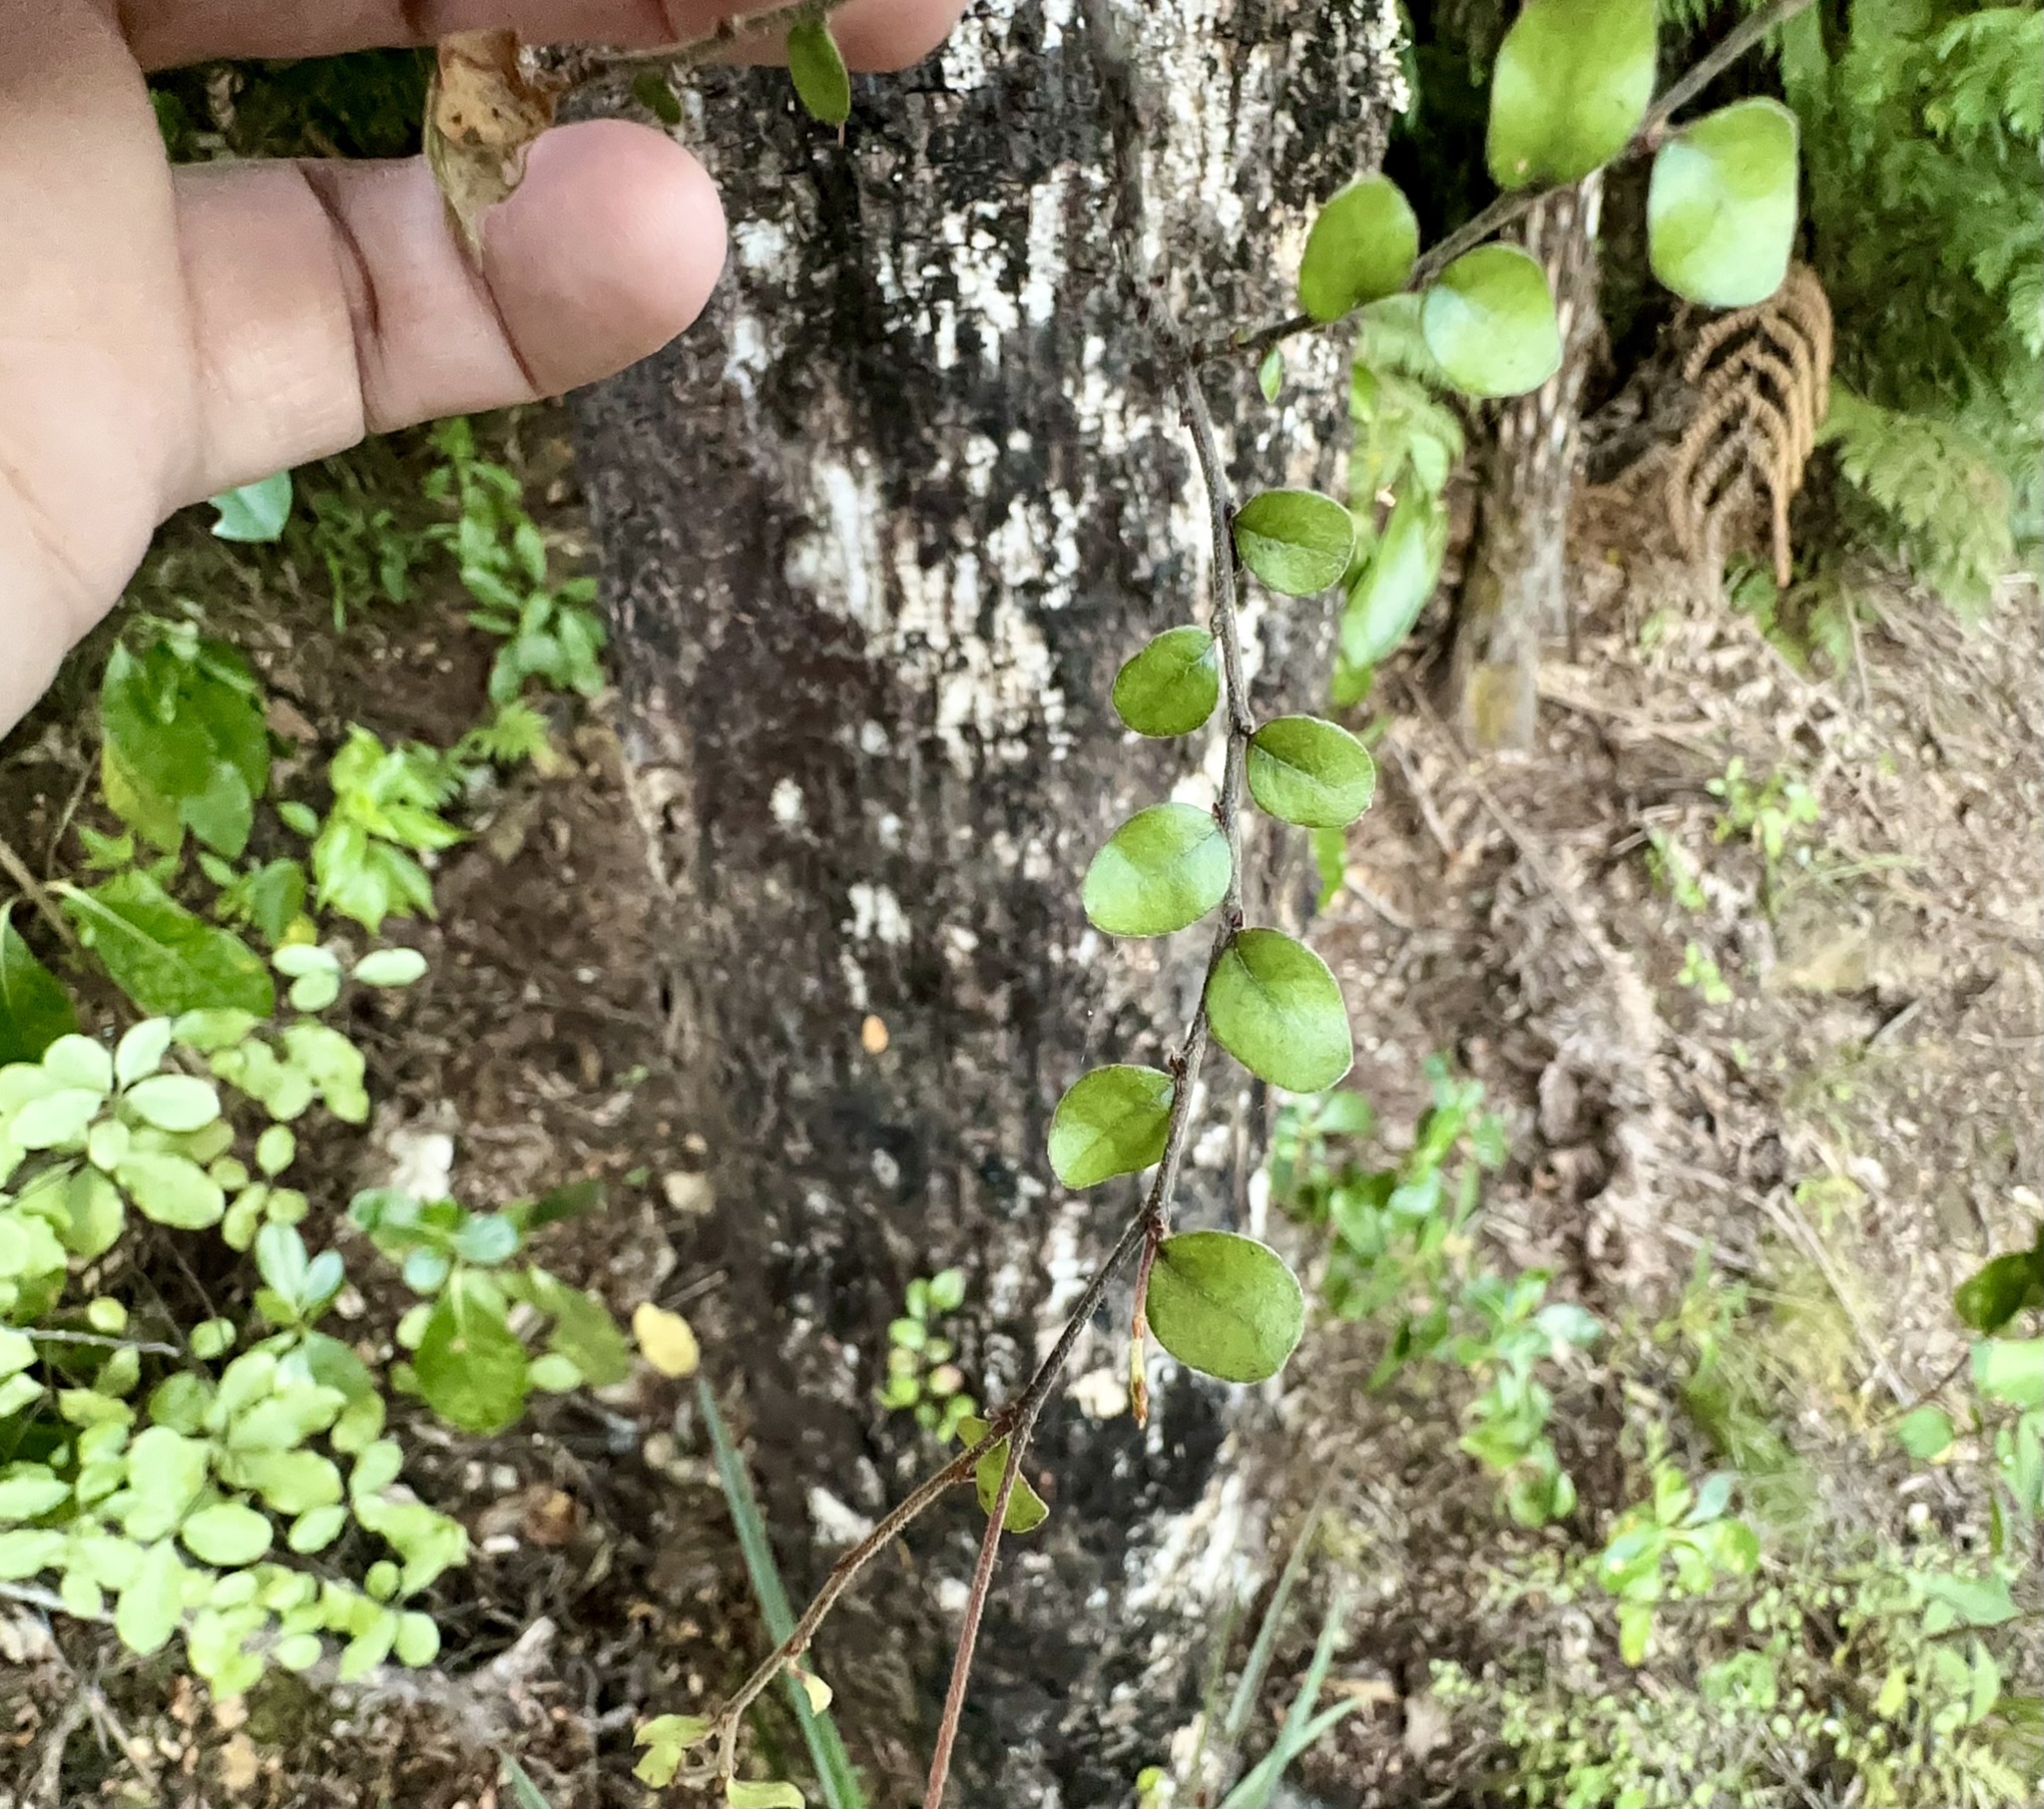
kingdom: Plantae
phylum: Tracheophyta
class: Magnoliopsida
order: Fagales
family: Nothofagaceae
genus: Nothofagus
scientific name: Nothofagus solandri
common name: Black beech
